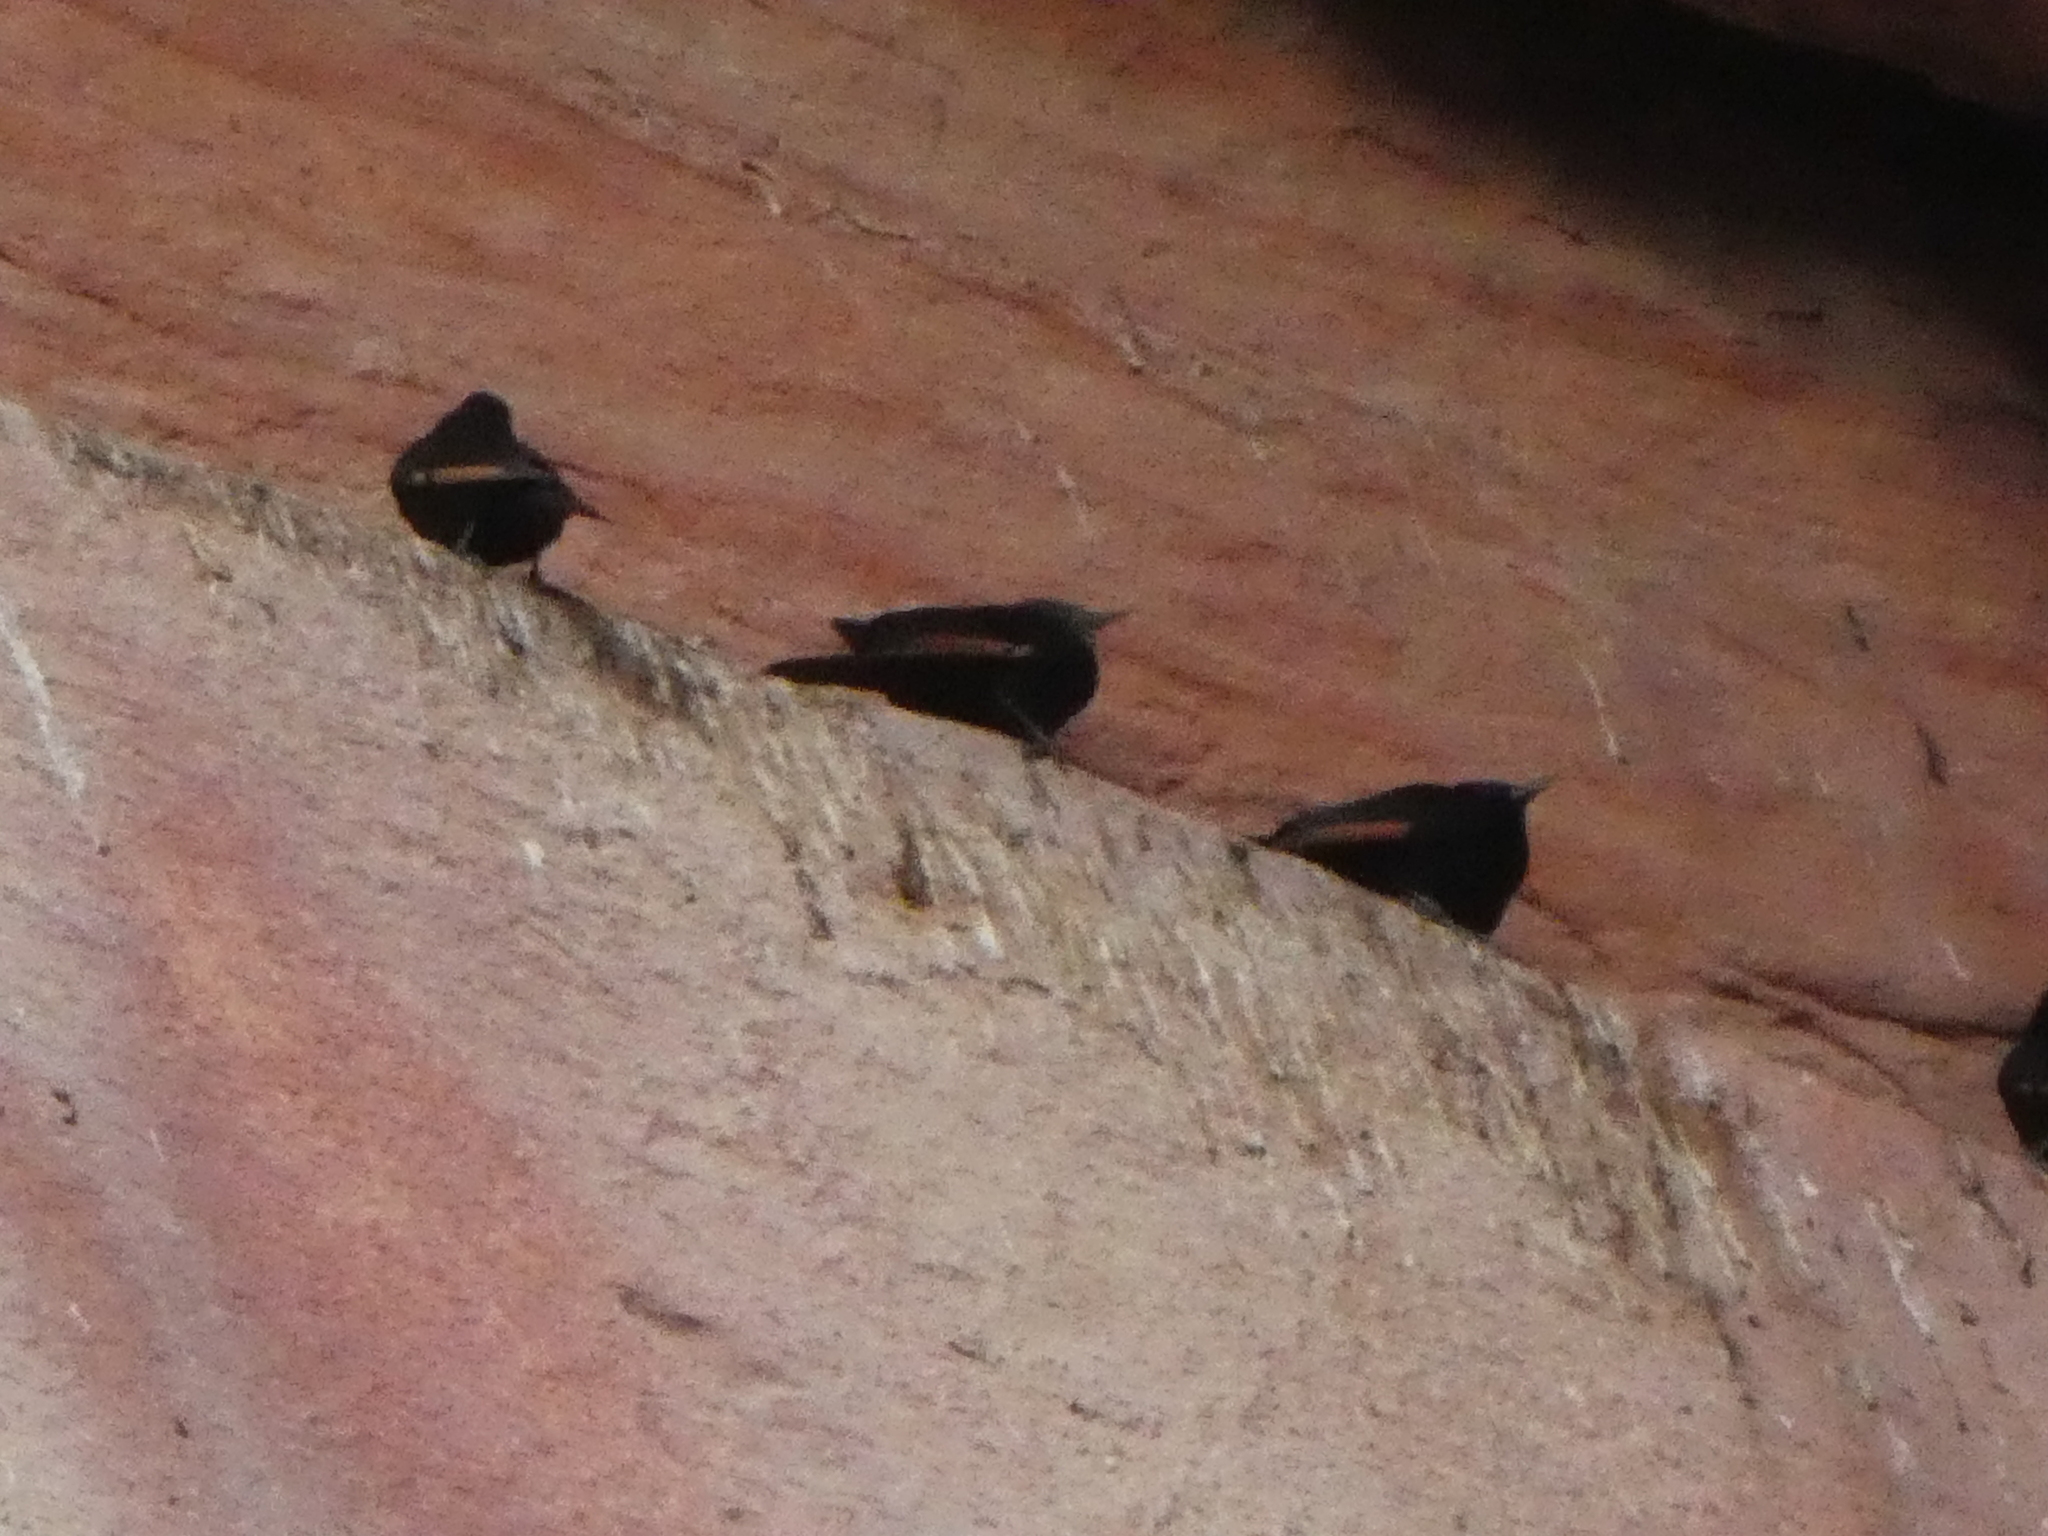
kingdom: Animalia
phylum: Chordata
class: Aves
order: Passeriformes
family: Sturnidae
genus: Onychognathus
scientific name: Onychognathus tristramii
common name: Tristram's starling
